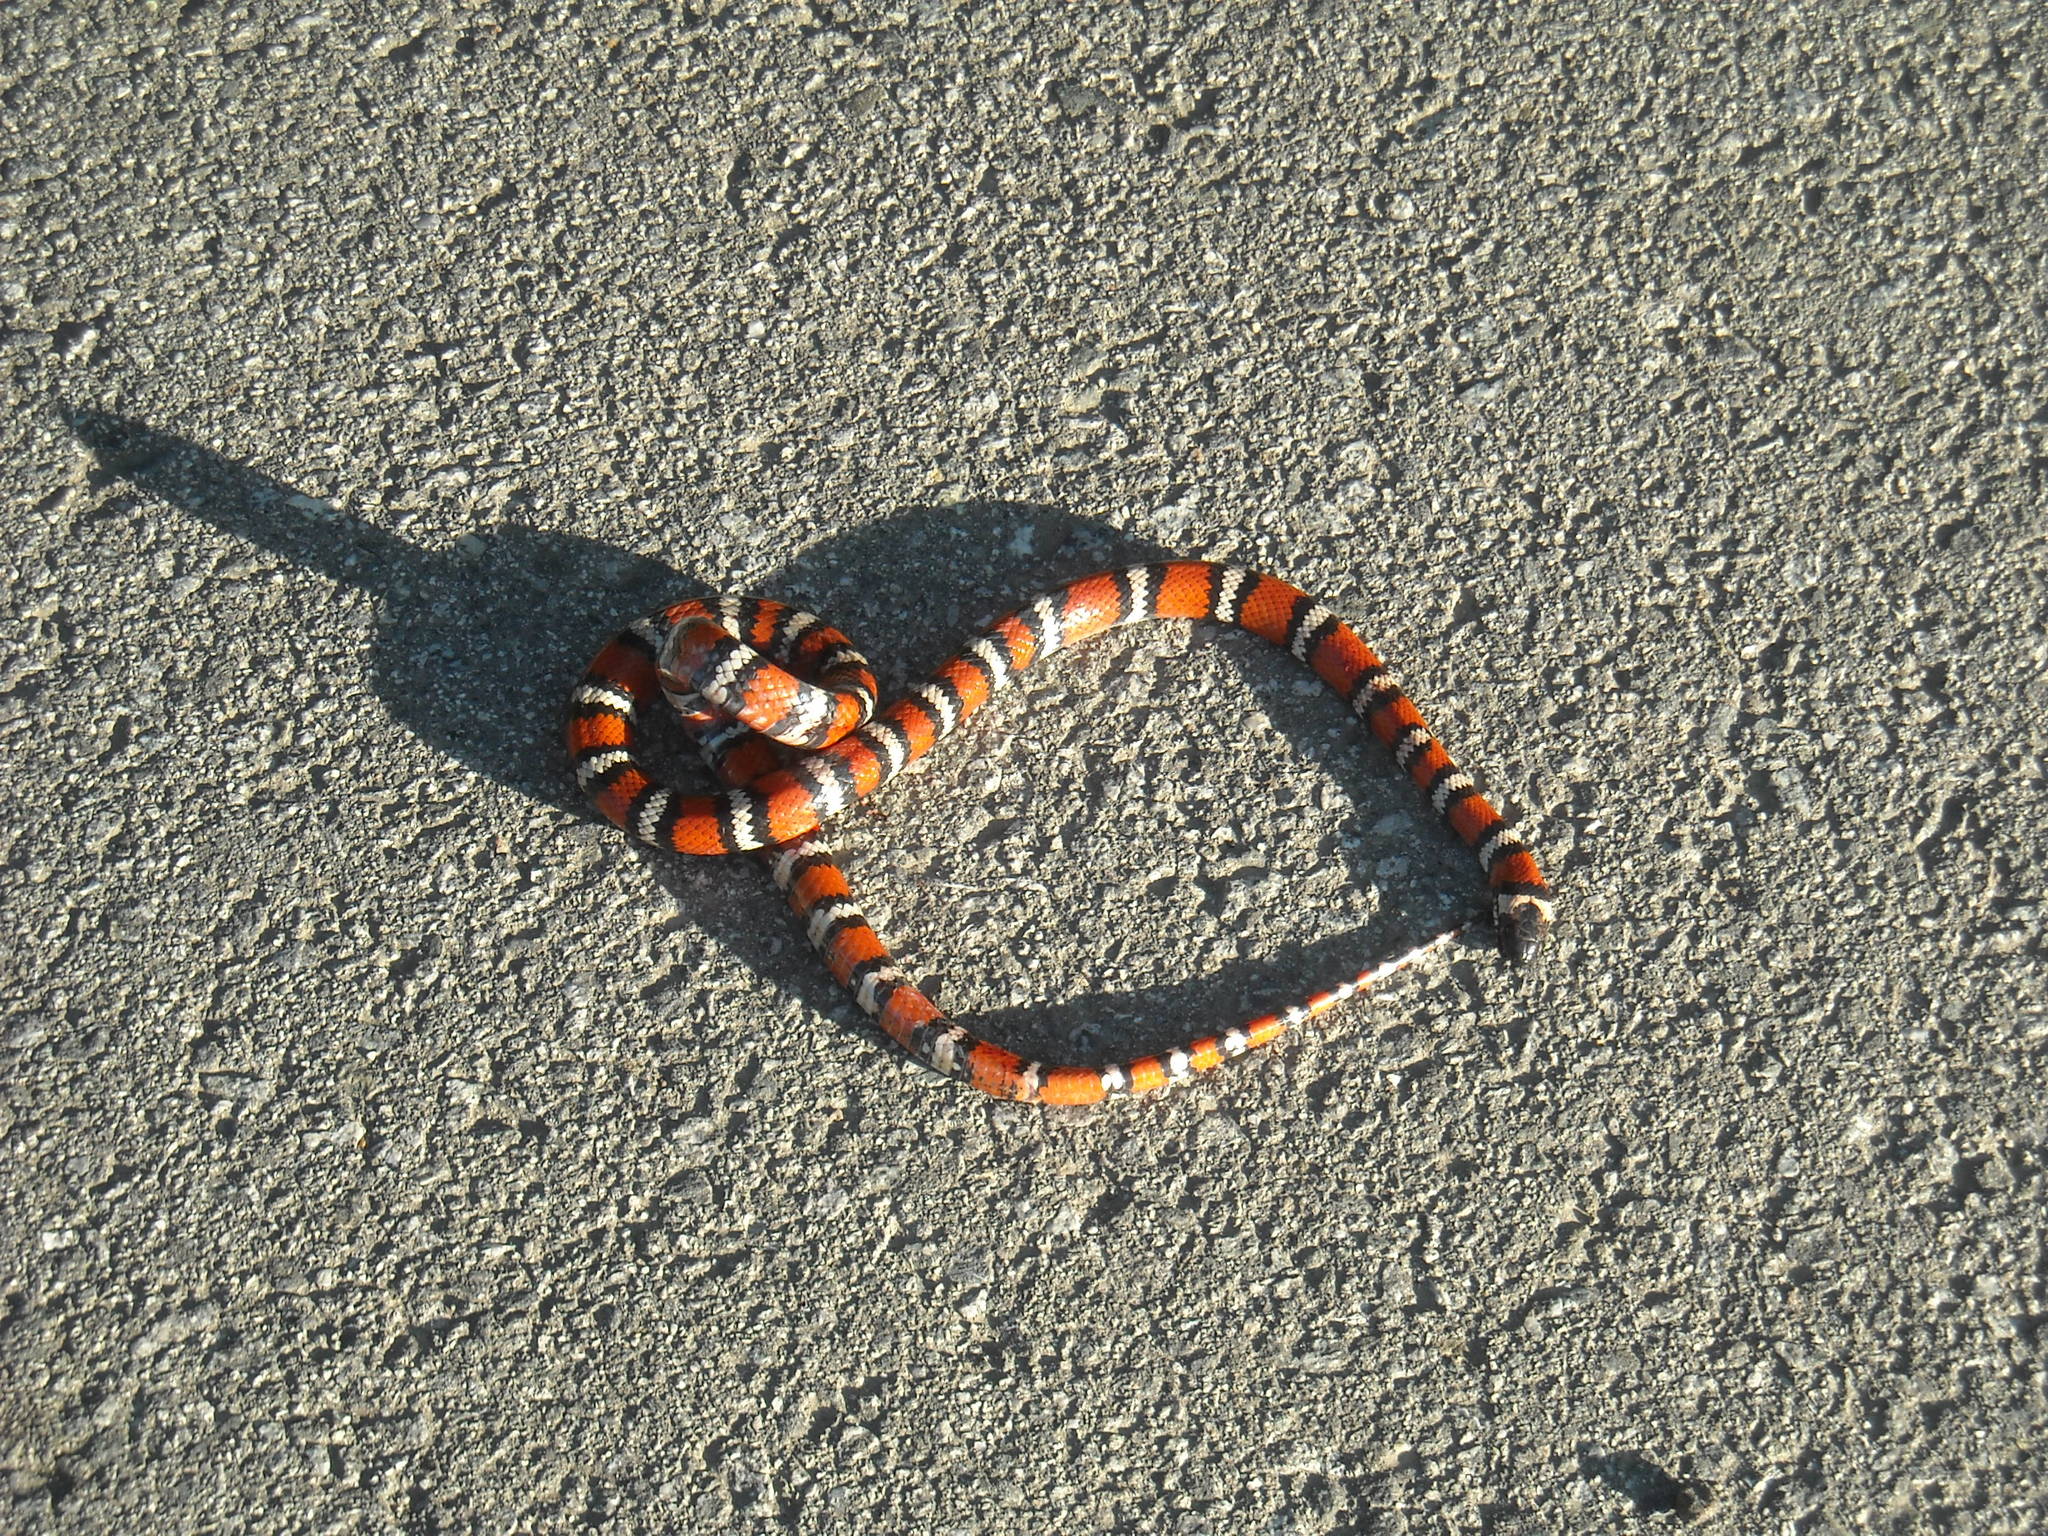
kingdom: Animalia
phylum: Chordata
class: Squamata
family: Colubridae
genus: Lampropeltis
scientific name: Lampropeltis zonata
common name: California mountain kingsnake
